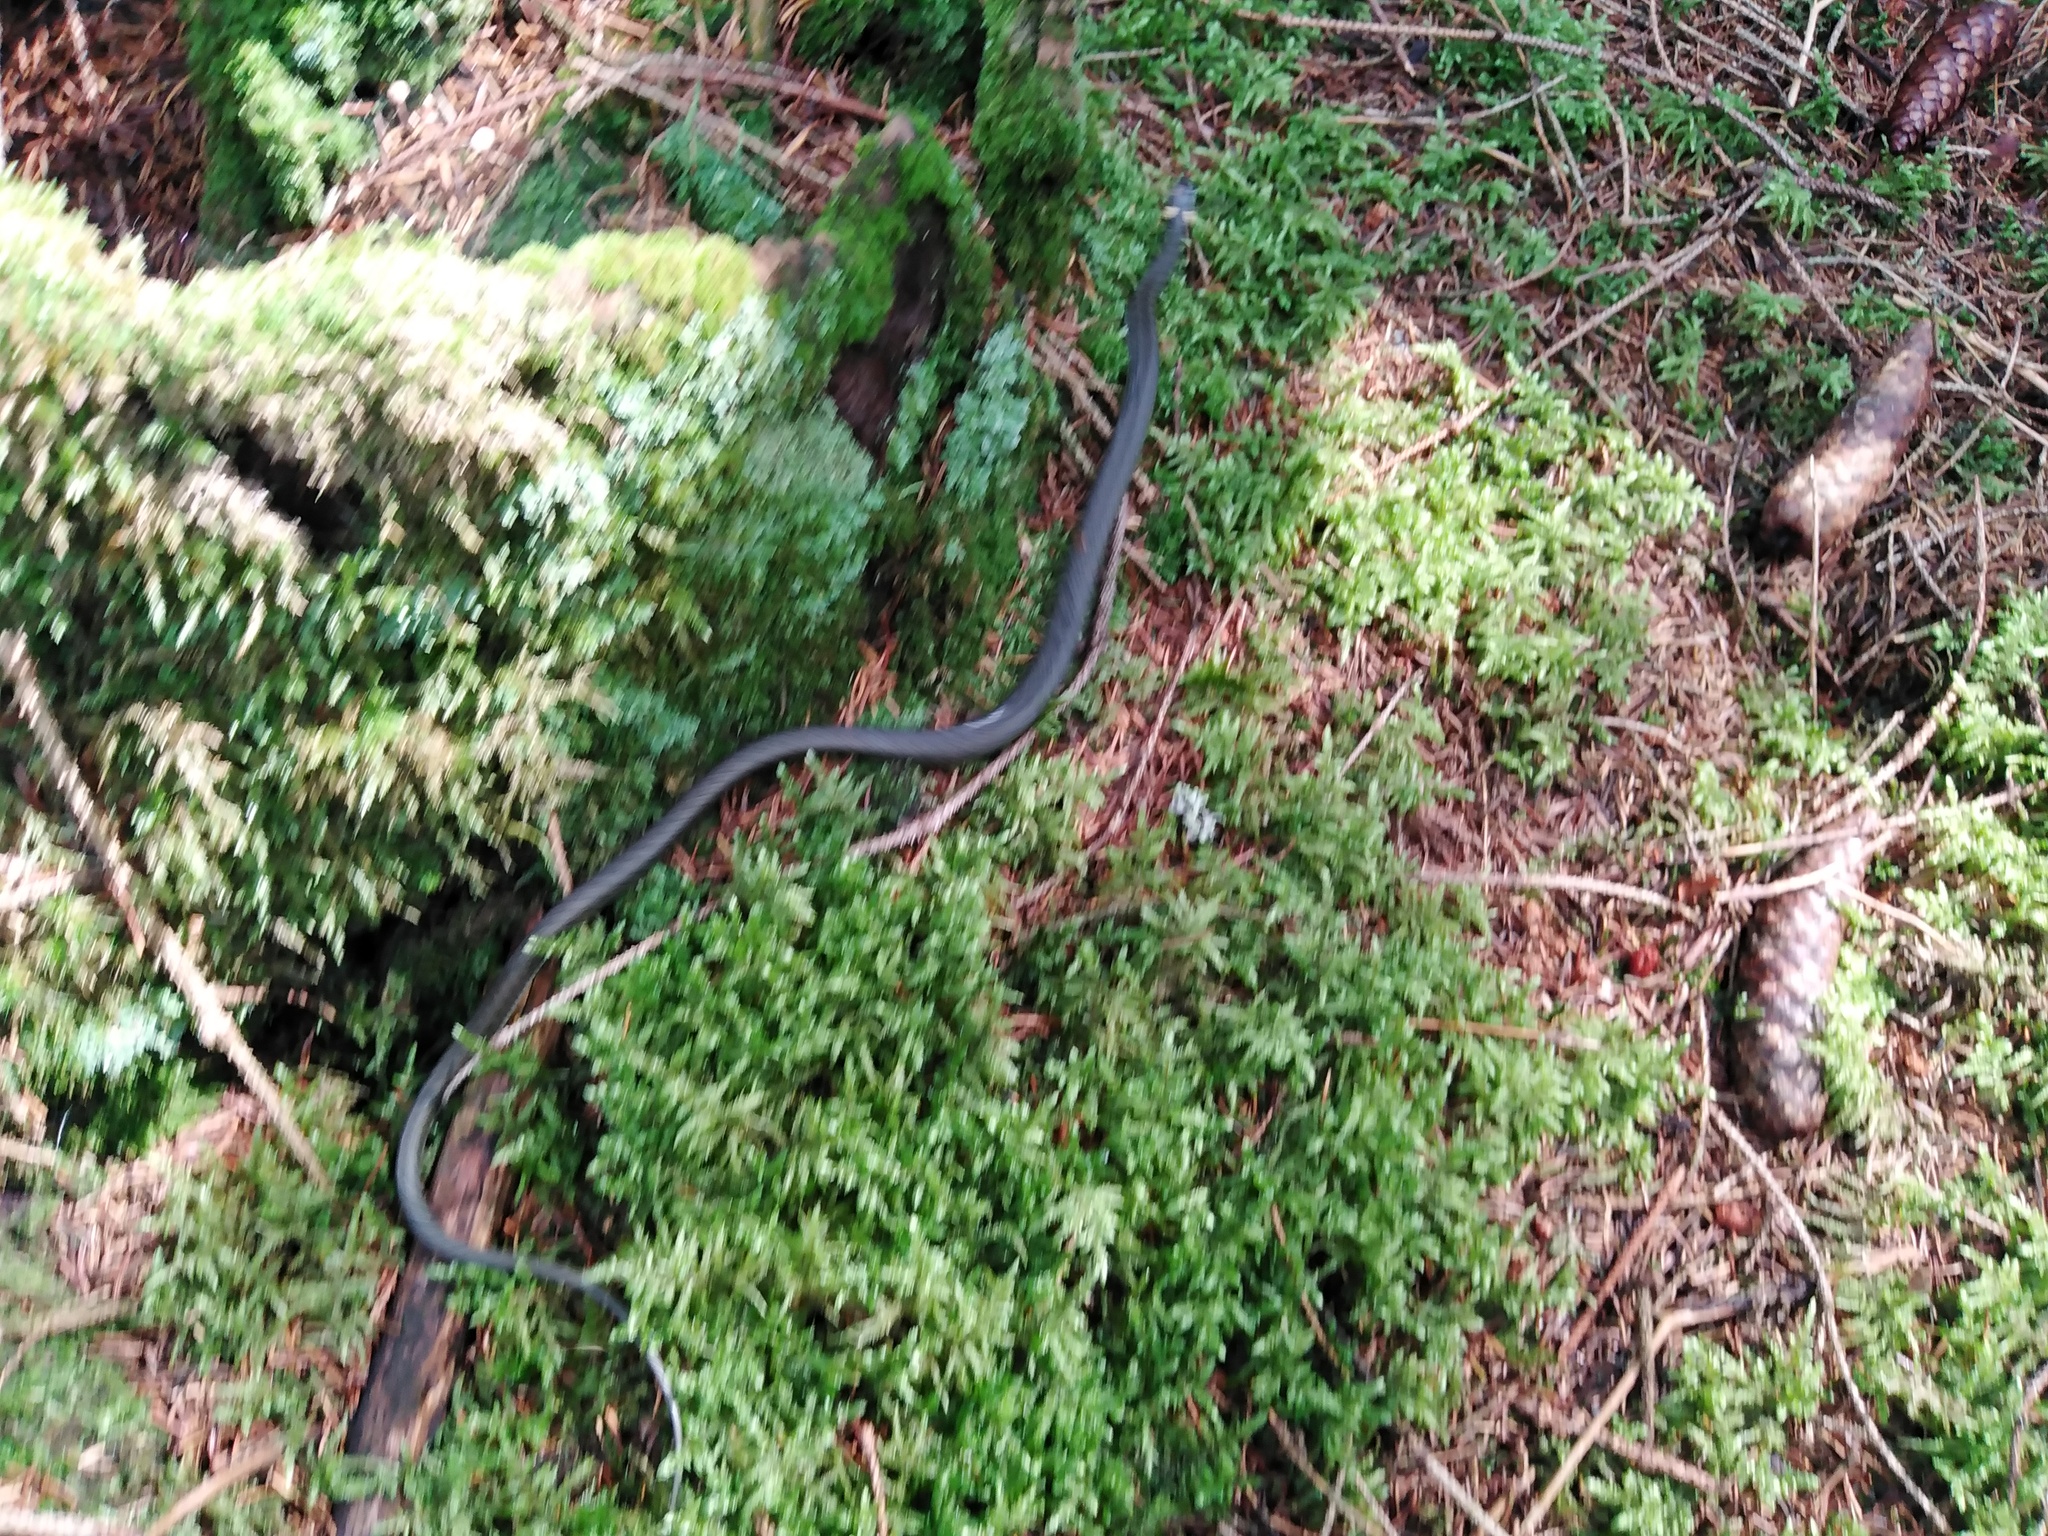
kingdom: Animalia
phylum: Chordata
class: Squamata
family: Colubridae
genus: Natrix
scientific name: Natrix natrix
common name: Grass snake
